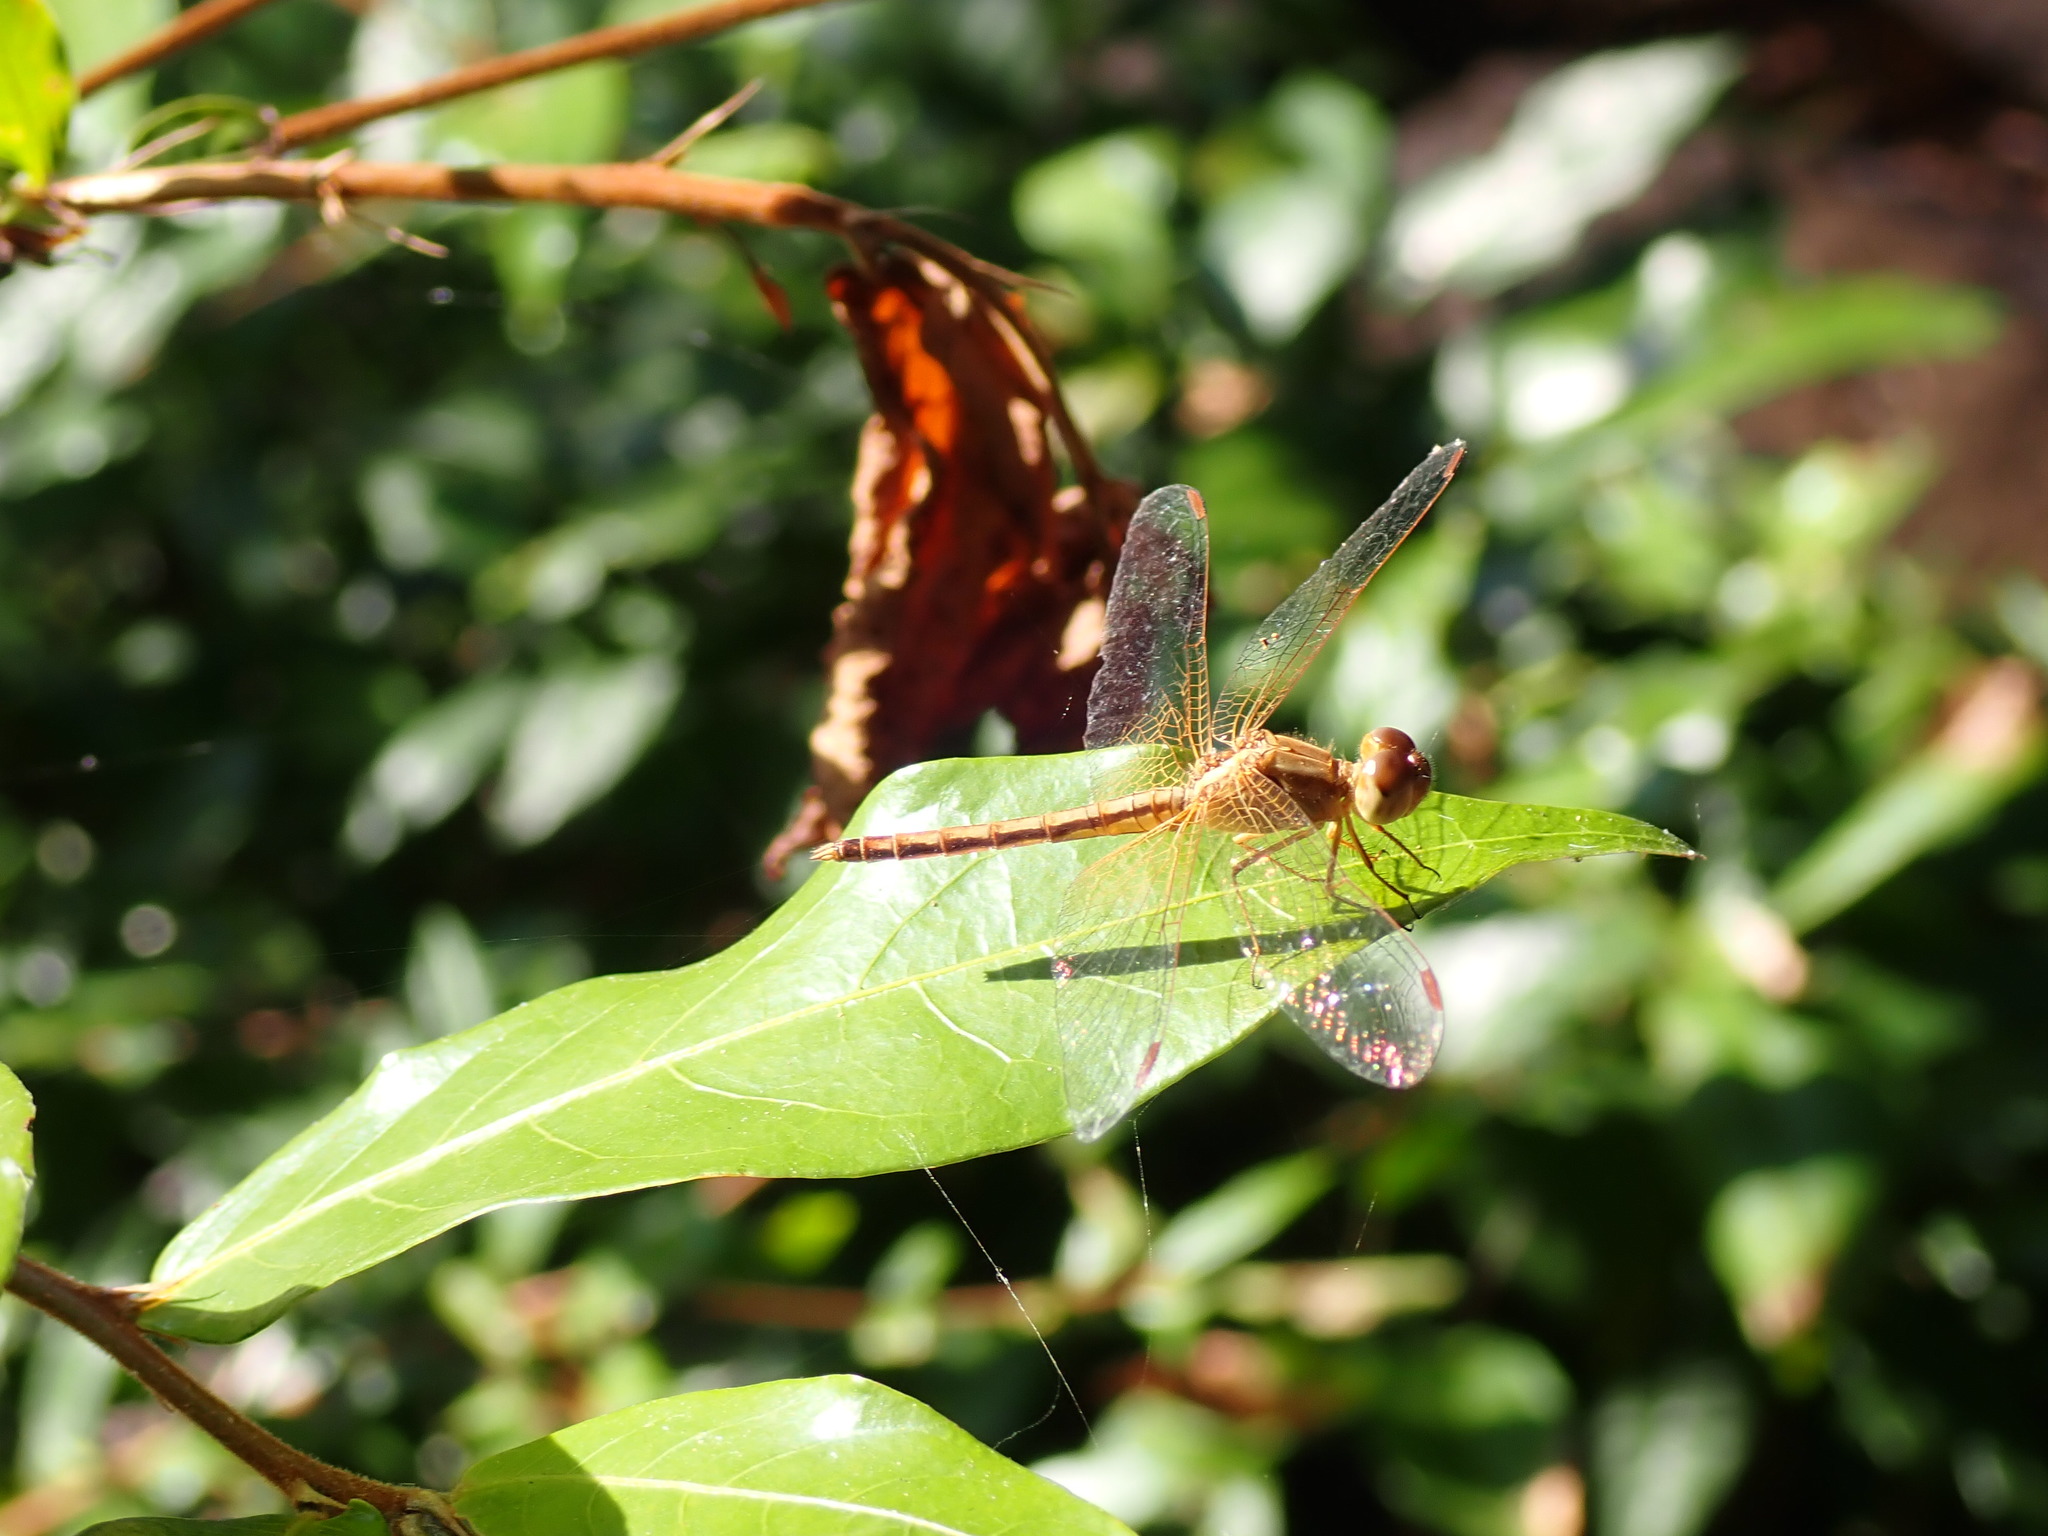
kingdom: Animalia
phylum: Arthropoda
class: Insecta
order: Odonata
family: Libellulidae
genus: Neurothemis
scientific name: Neurothemis intermedia
